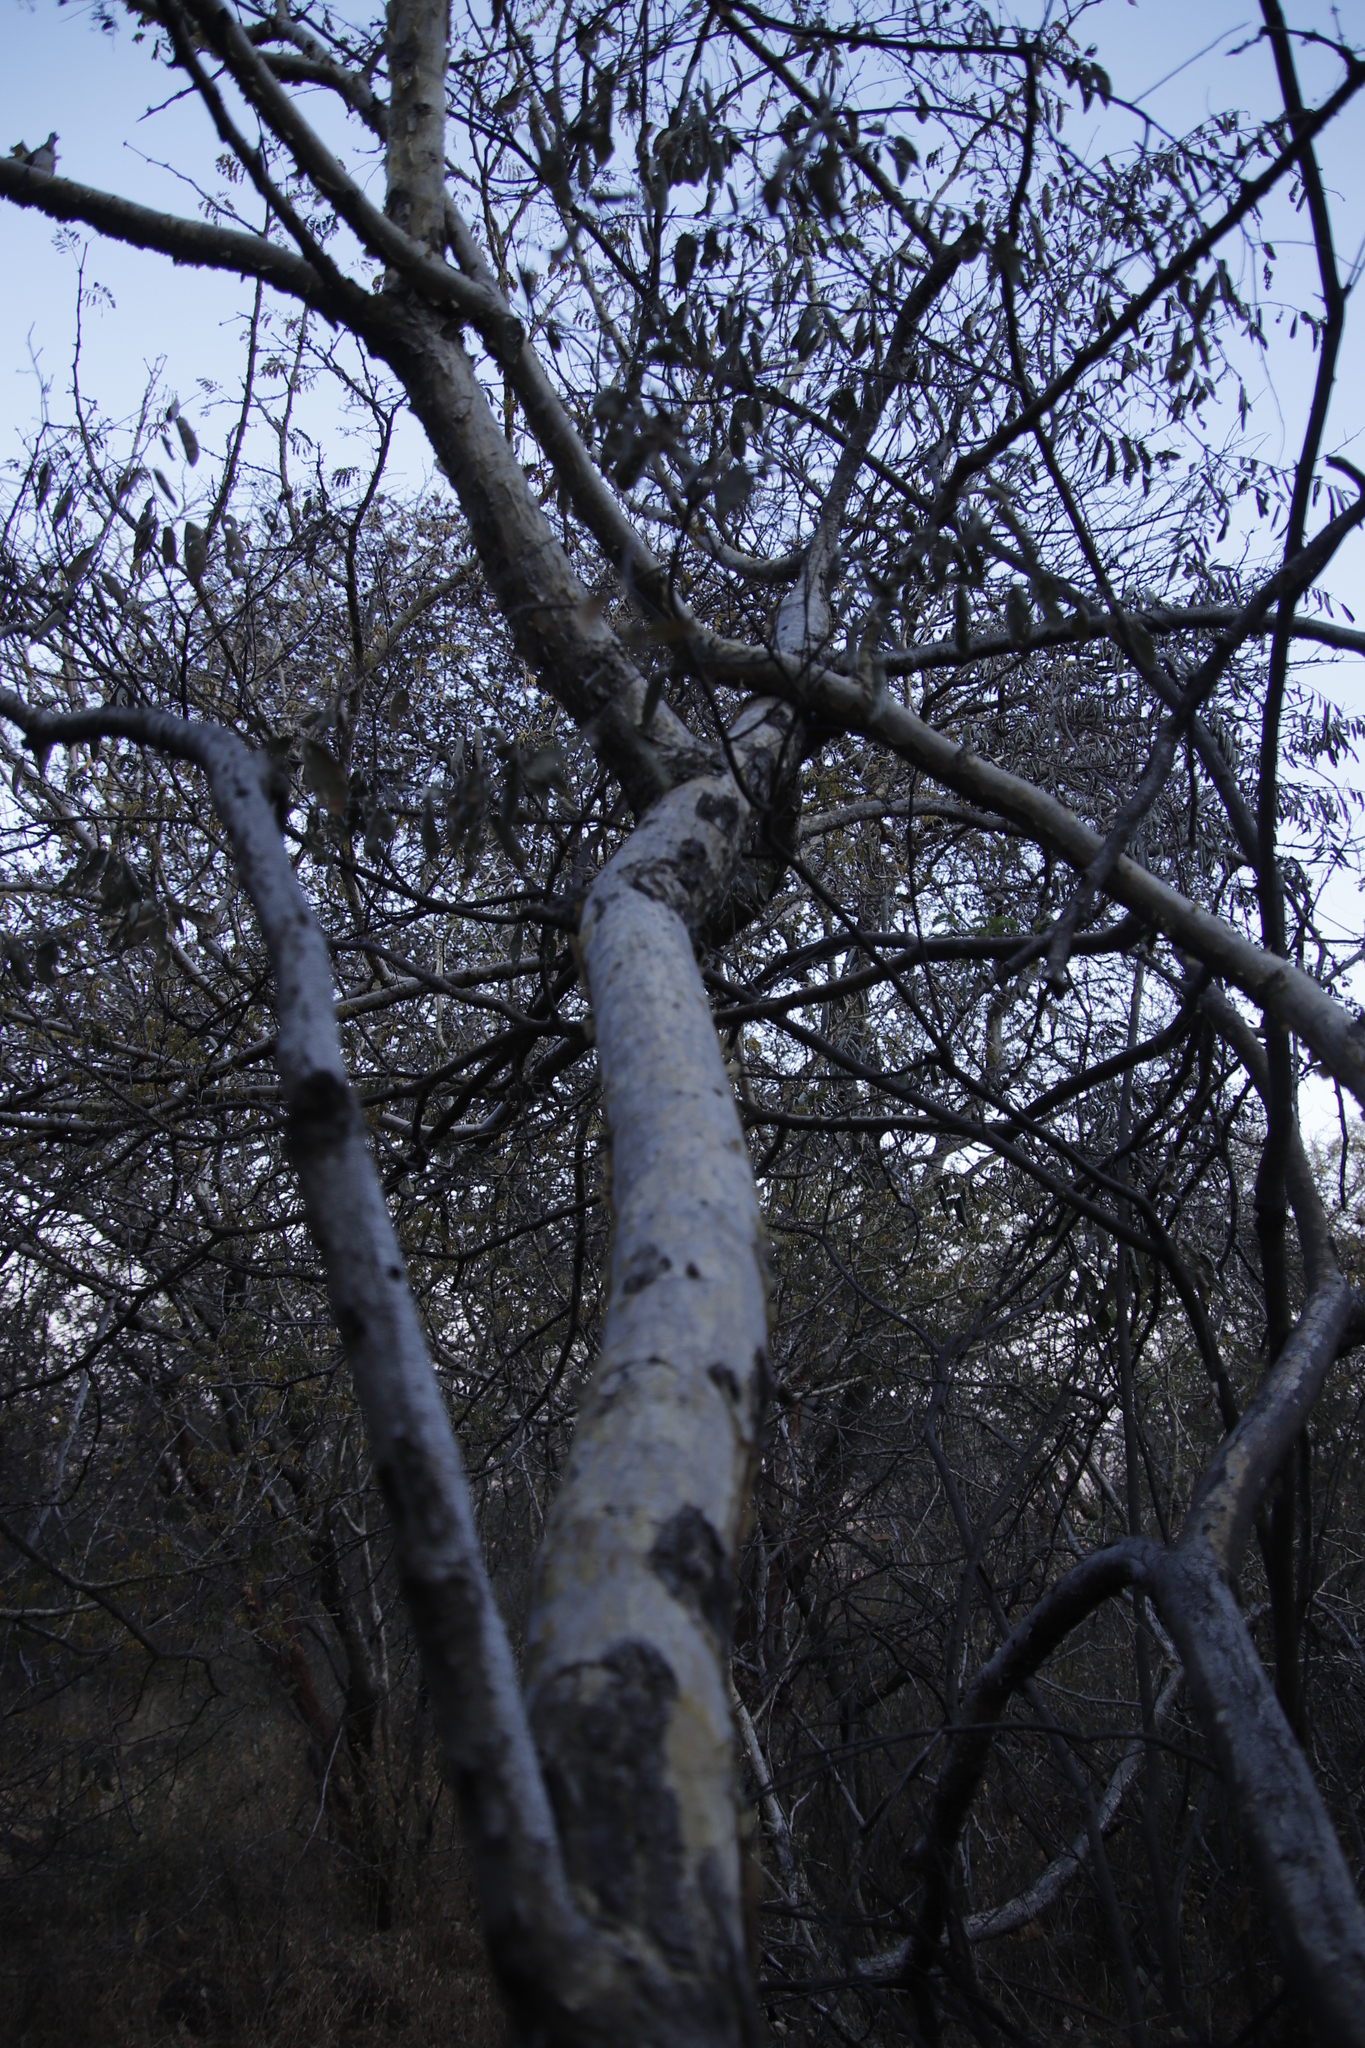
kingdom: Plantae
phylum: Tracheophyta
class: Magnoliopsida
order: Fabales
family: Fabaceae
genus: Senegalia
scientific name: Senegalia erubescens
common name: Bluethorn
